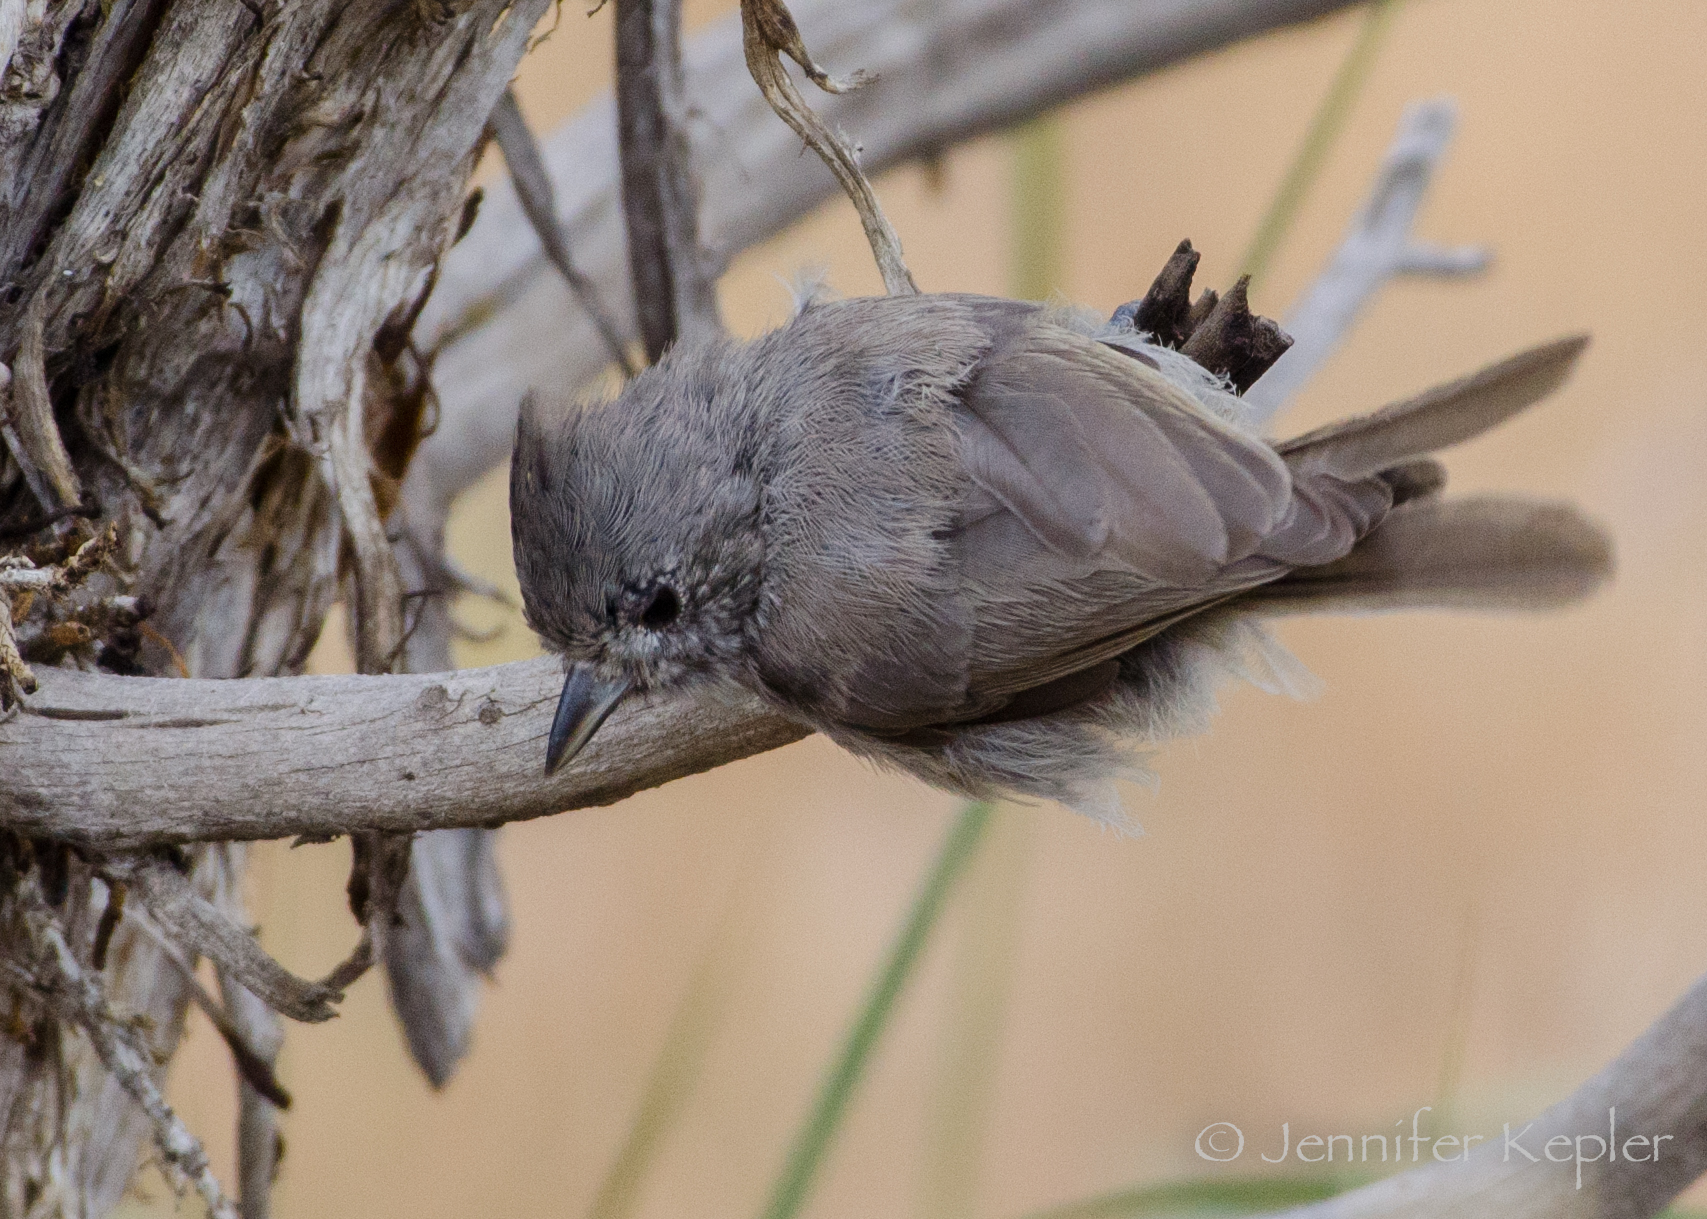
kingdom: Animalia
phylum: Chordata
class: Aves
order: Passeriformes
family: Paridae
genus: Baeolophus
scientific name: Baeolophus ridgwayi
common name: Juniper titmouse
